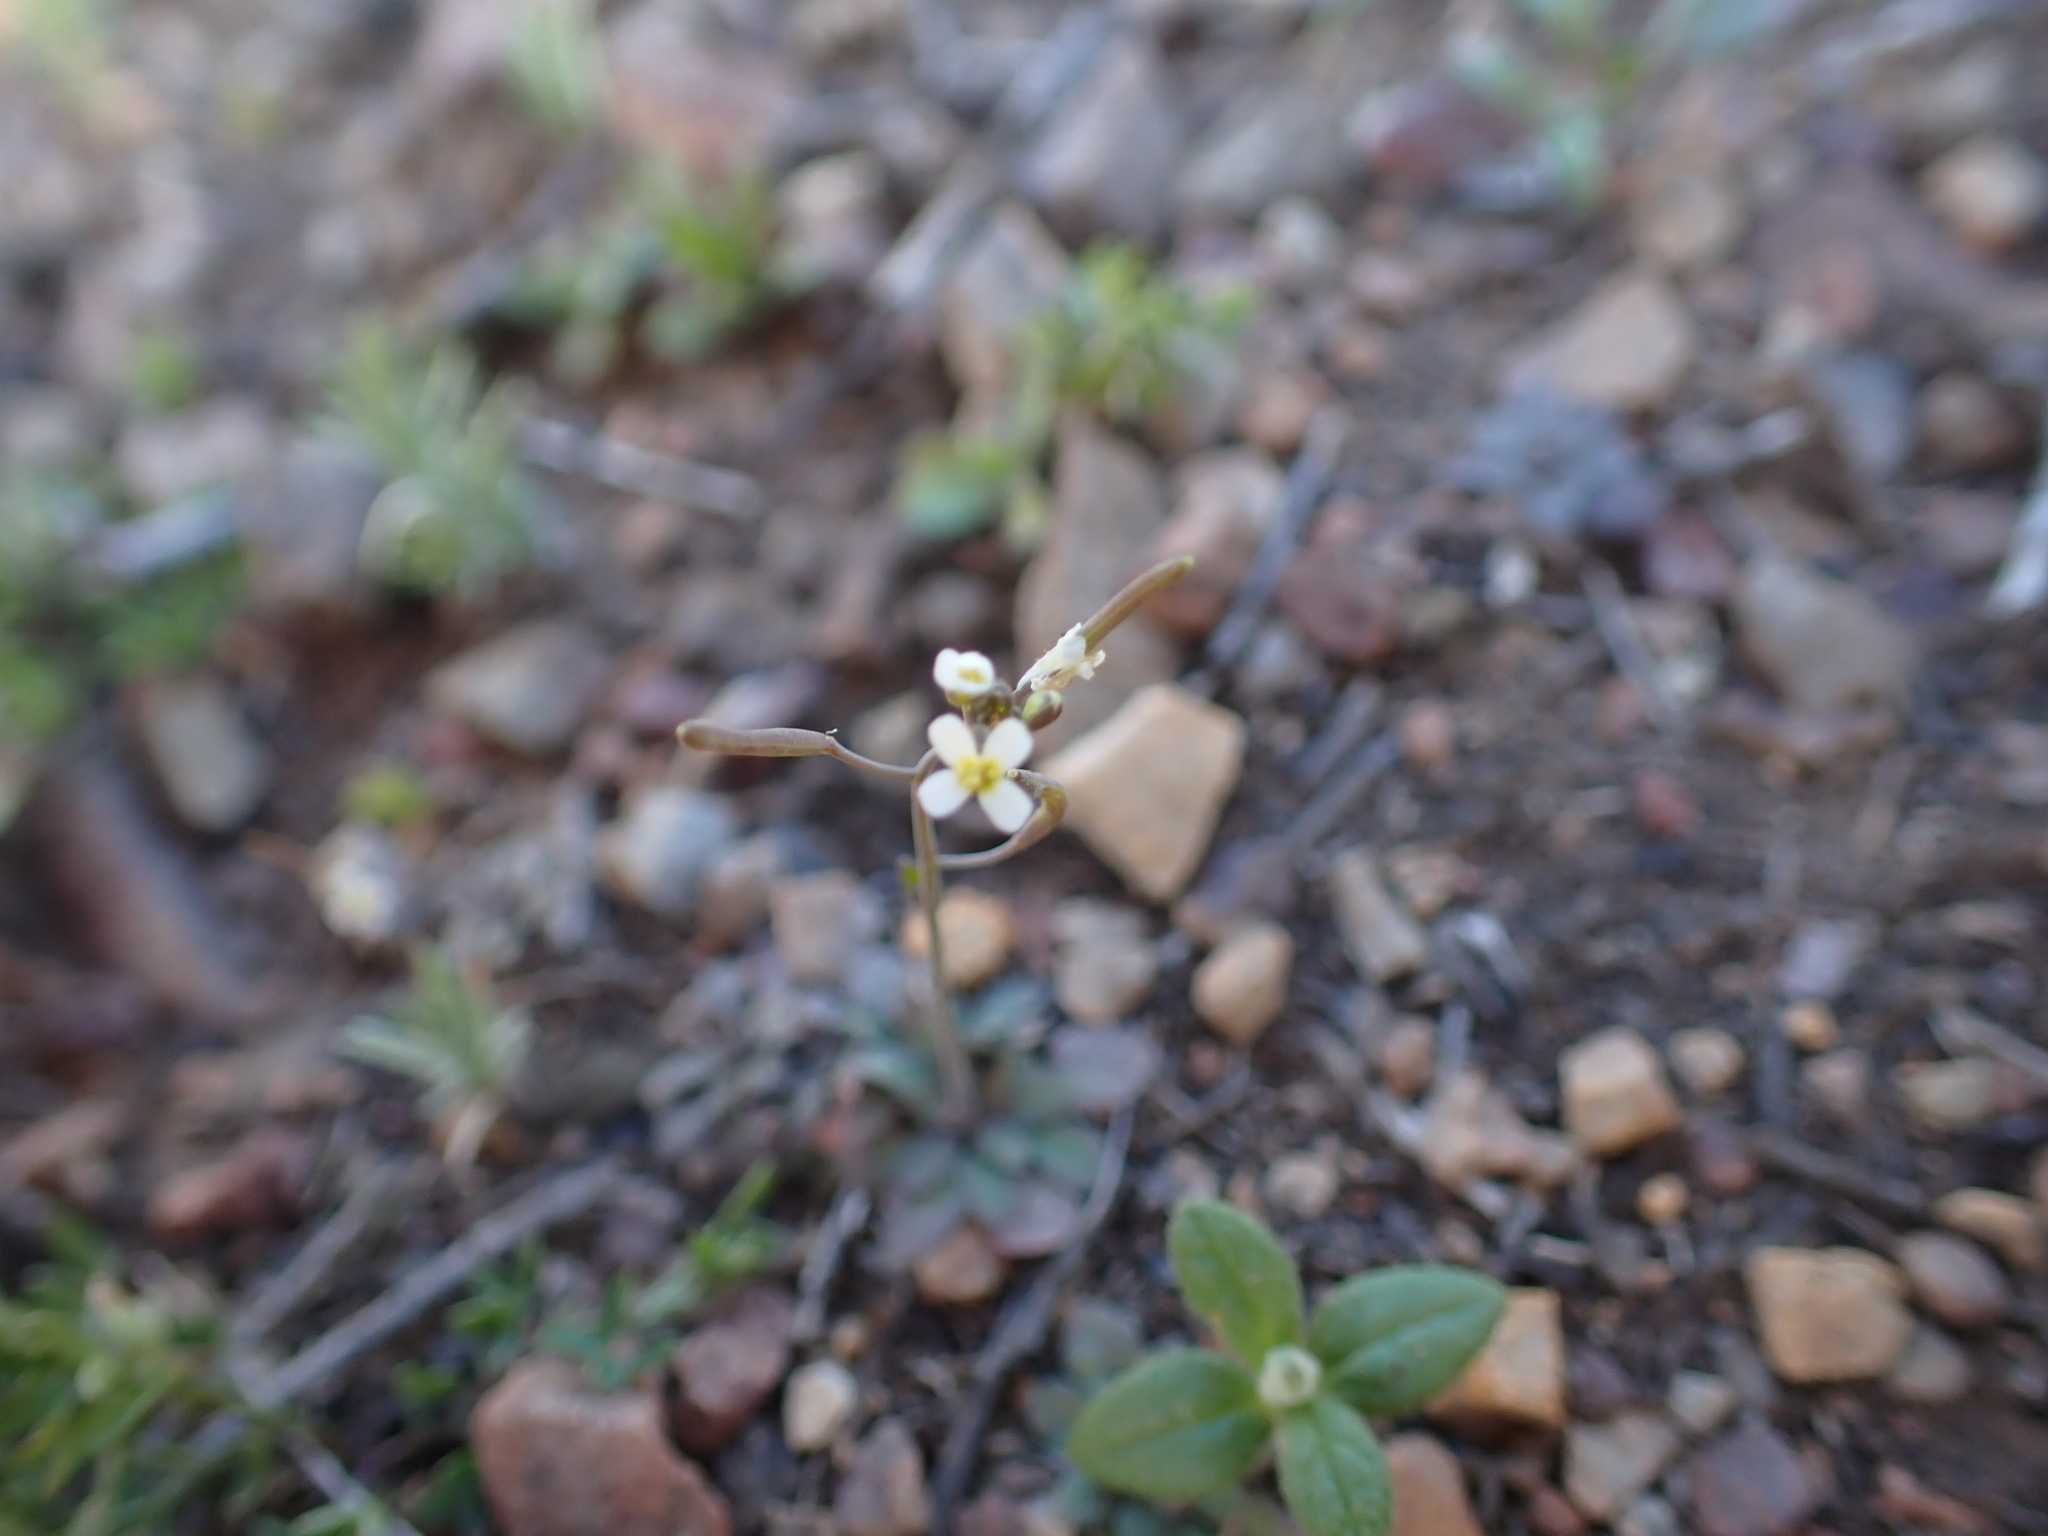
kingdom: Plantae
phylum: Tracheophyta
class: Magnoliopsida
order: Brassicales
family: Brassicaceae
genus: Arabidopsis
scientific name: Arabidopsis thaliana
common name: Thale cress
